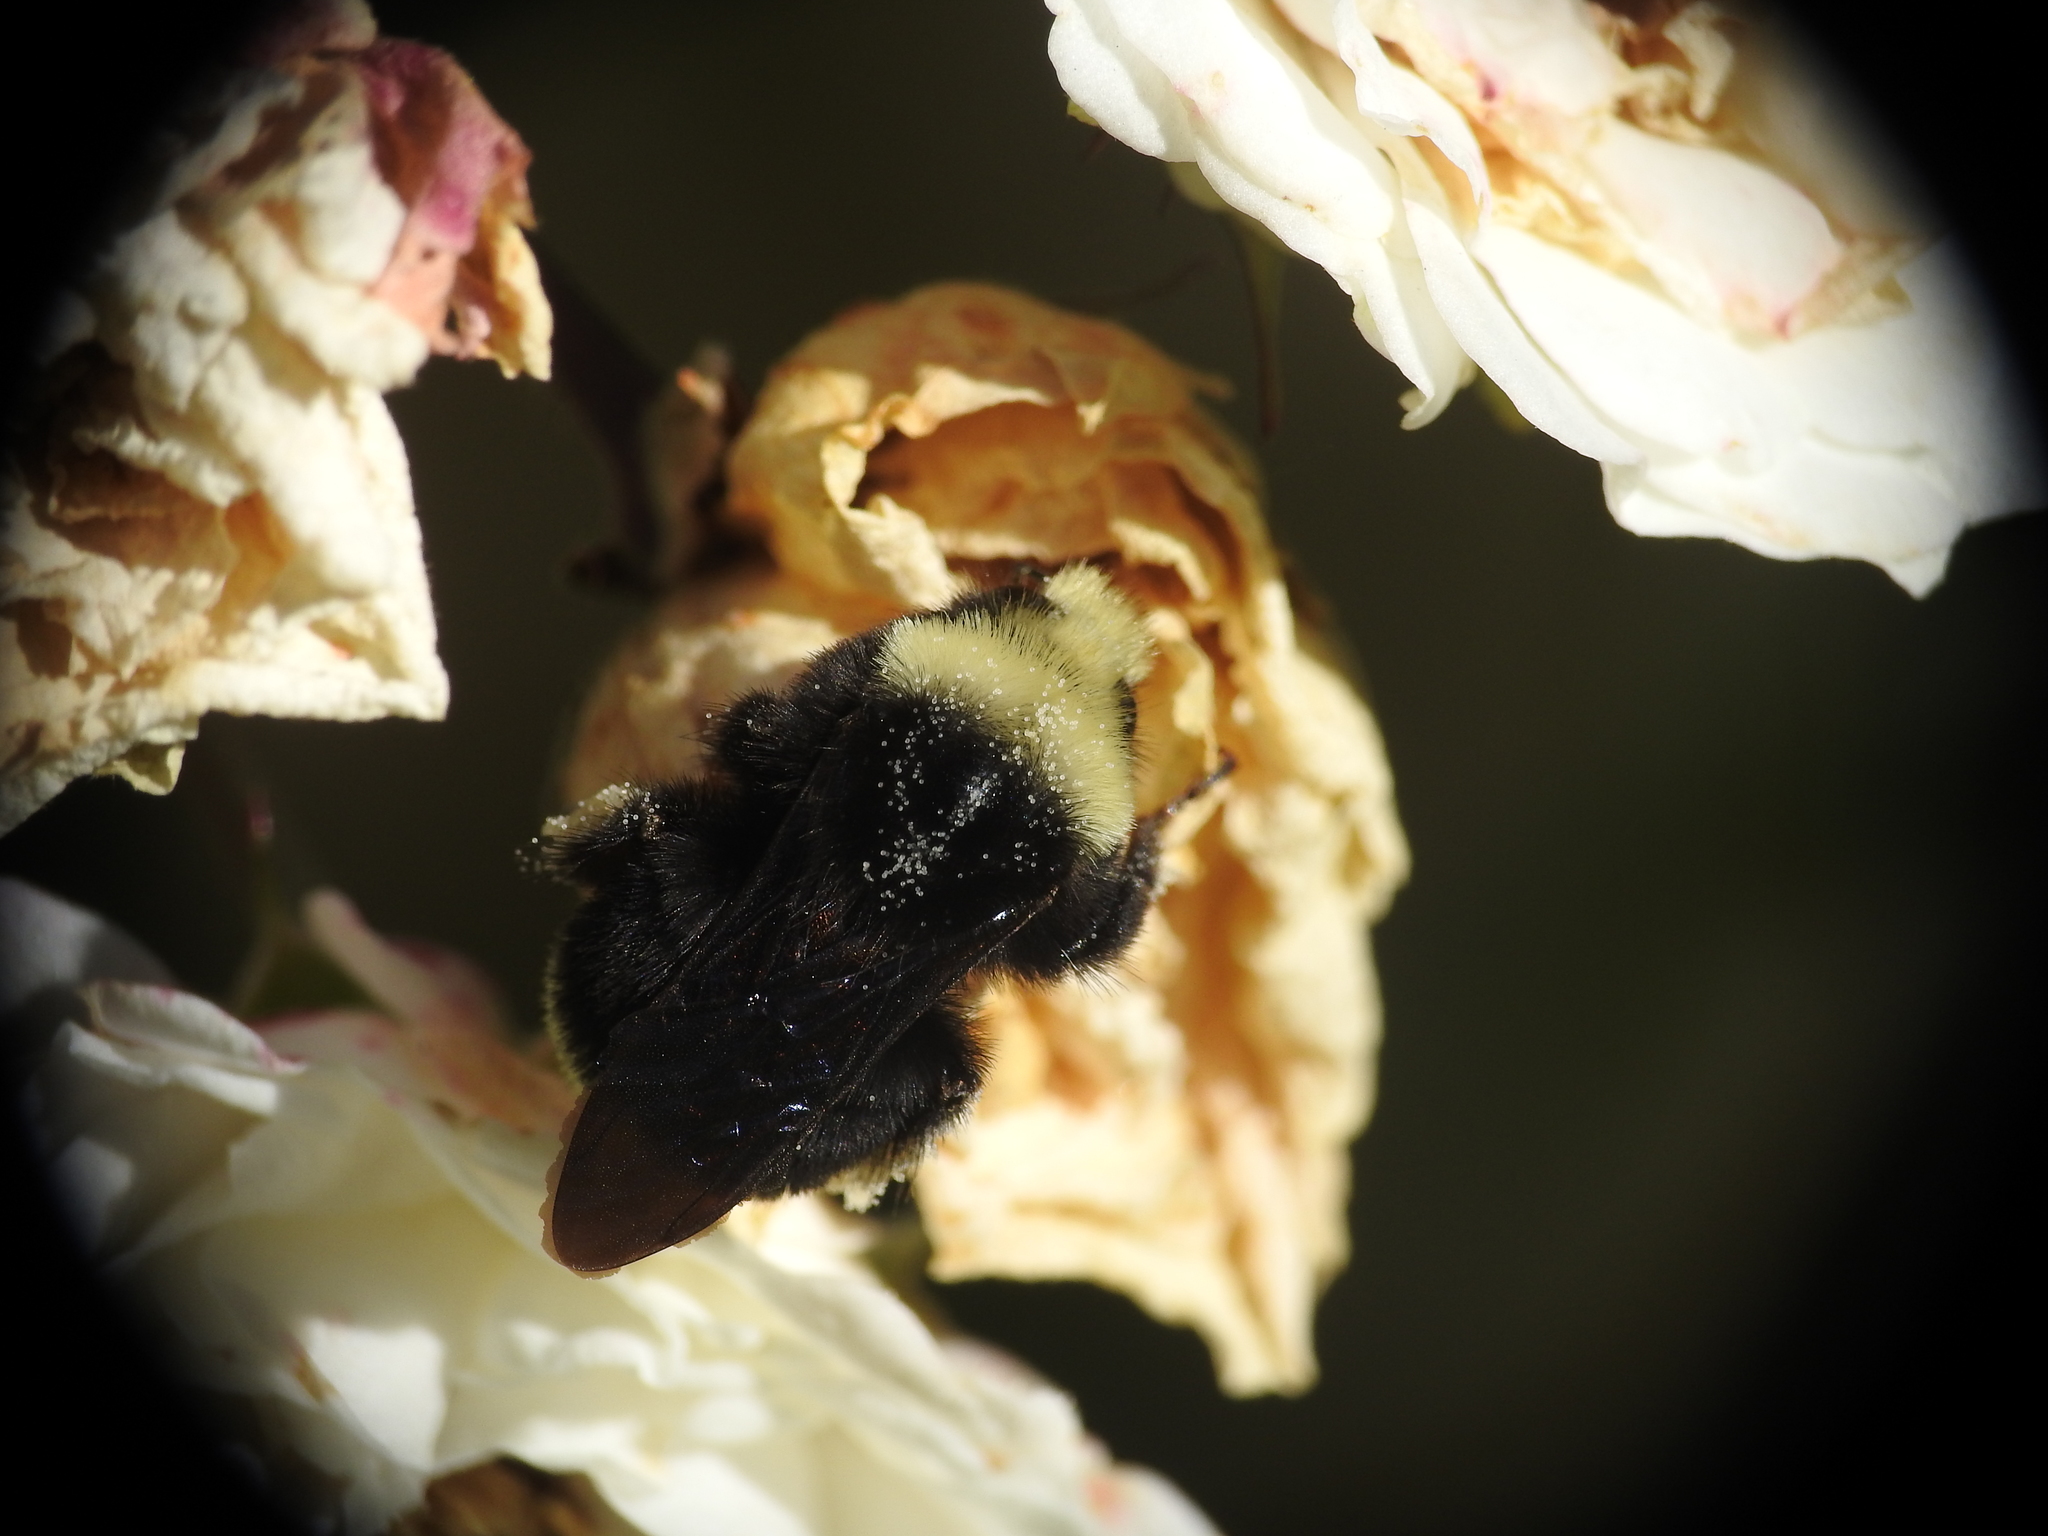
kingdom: Animalia
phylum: Arthropoda
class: Insecta
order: Hymenoptera
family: Apidae
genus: Bombus
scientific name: Bombus vosnesenskii
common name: Vosnesensky bumble bee
